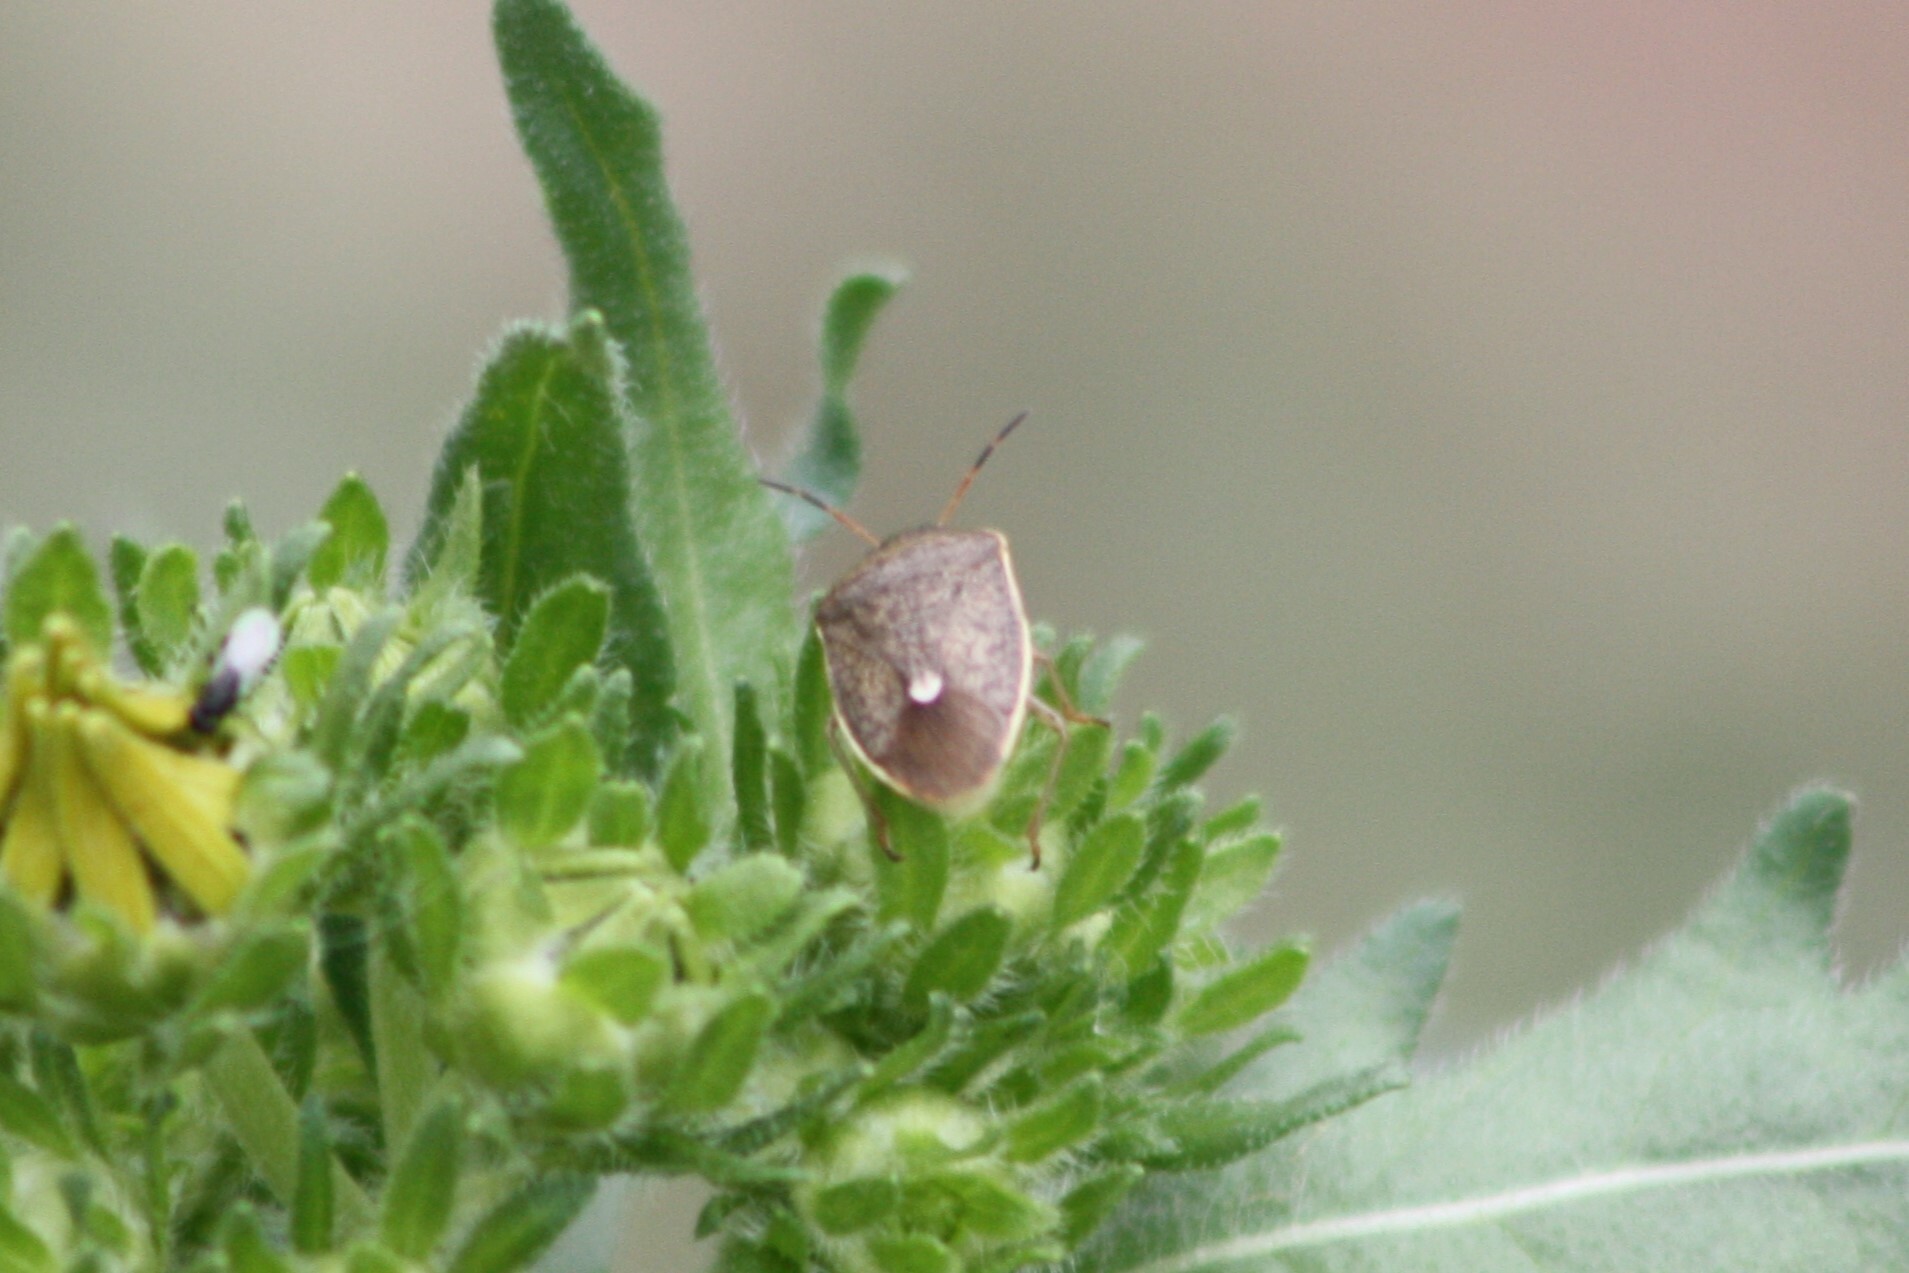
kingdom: Animalia
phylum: Arthropoda
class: Insecta
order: Hemiptera
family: Pentatomidae
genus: Holcostethus
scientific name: Holcostethus limbolarius
